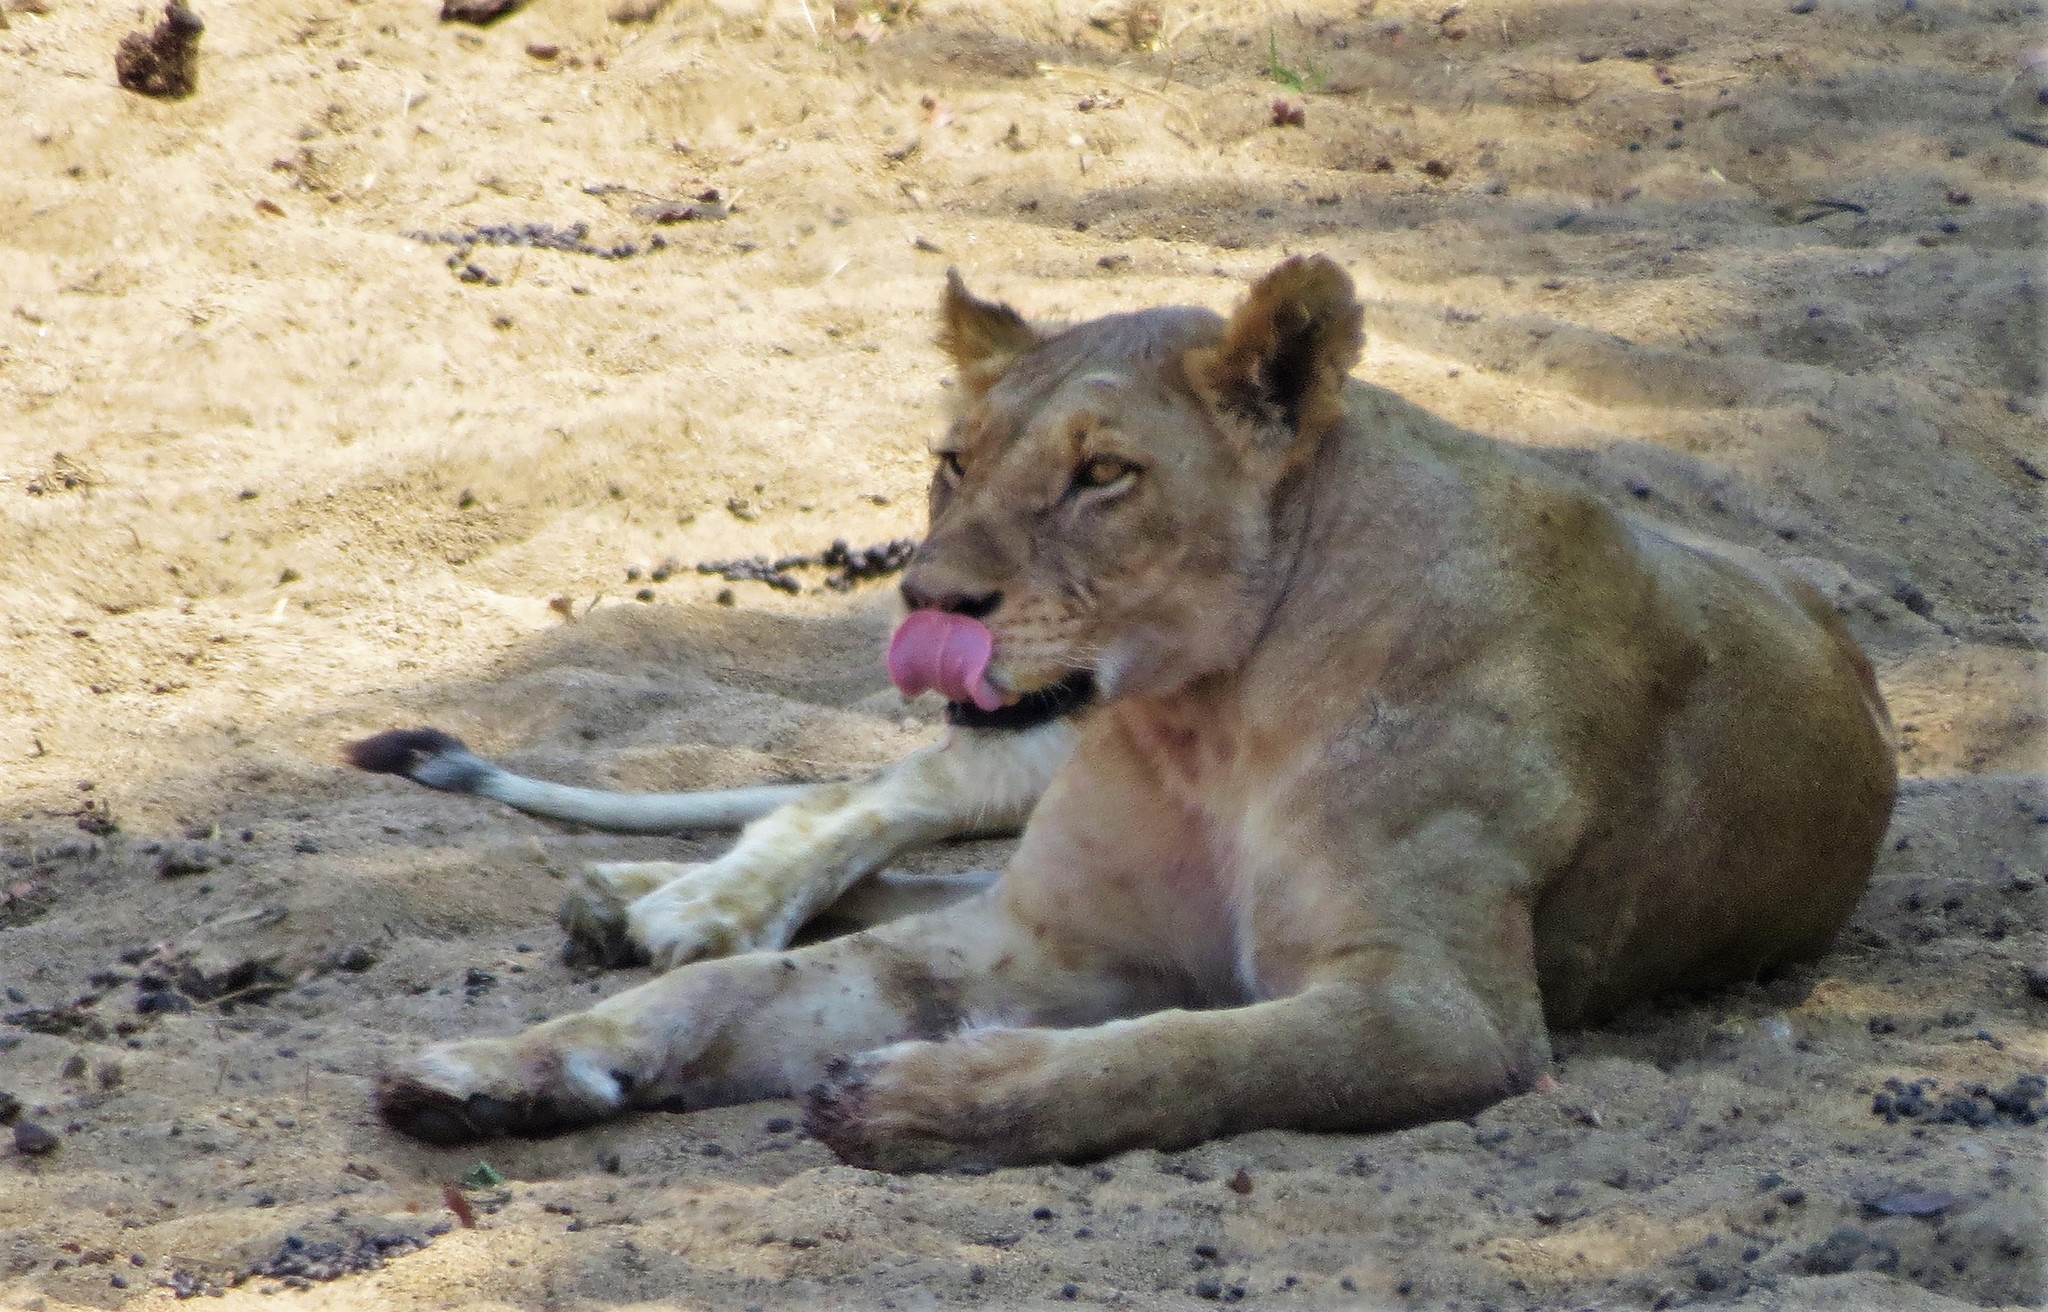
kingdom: Animalia
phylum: Chordata
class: Mammalia
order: Carnivora
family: Felidae
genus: Panthera
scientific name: Panthera leo
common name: Lion
